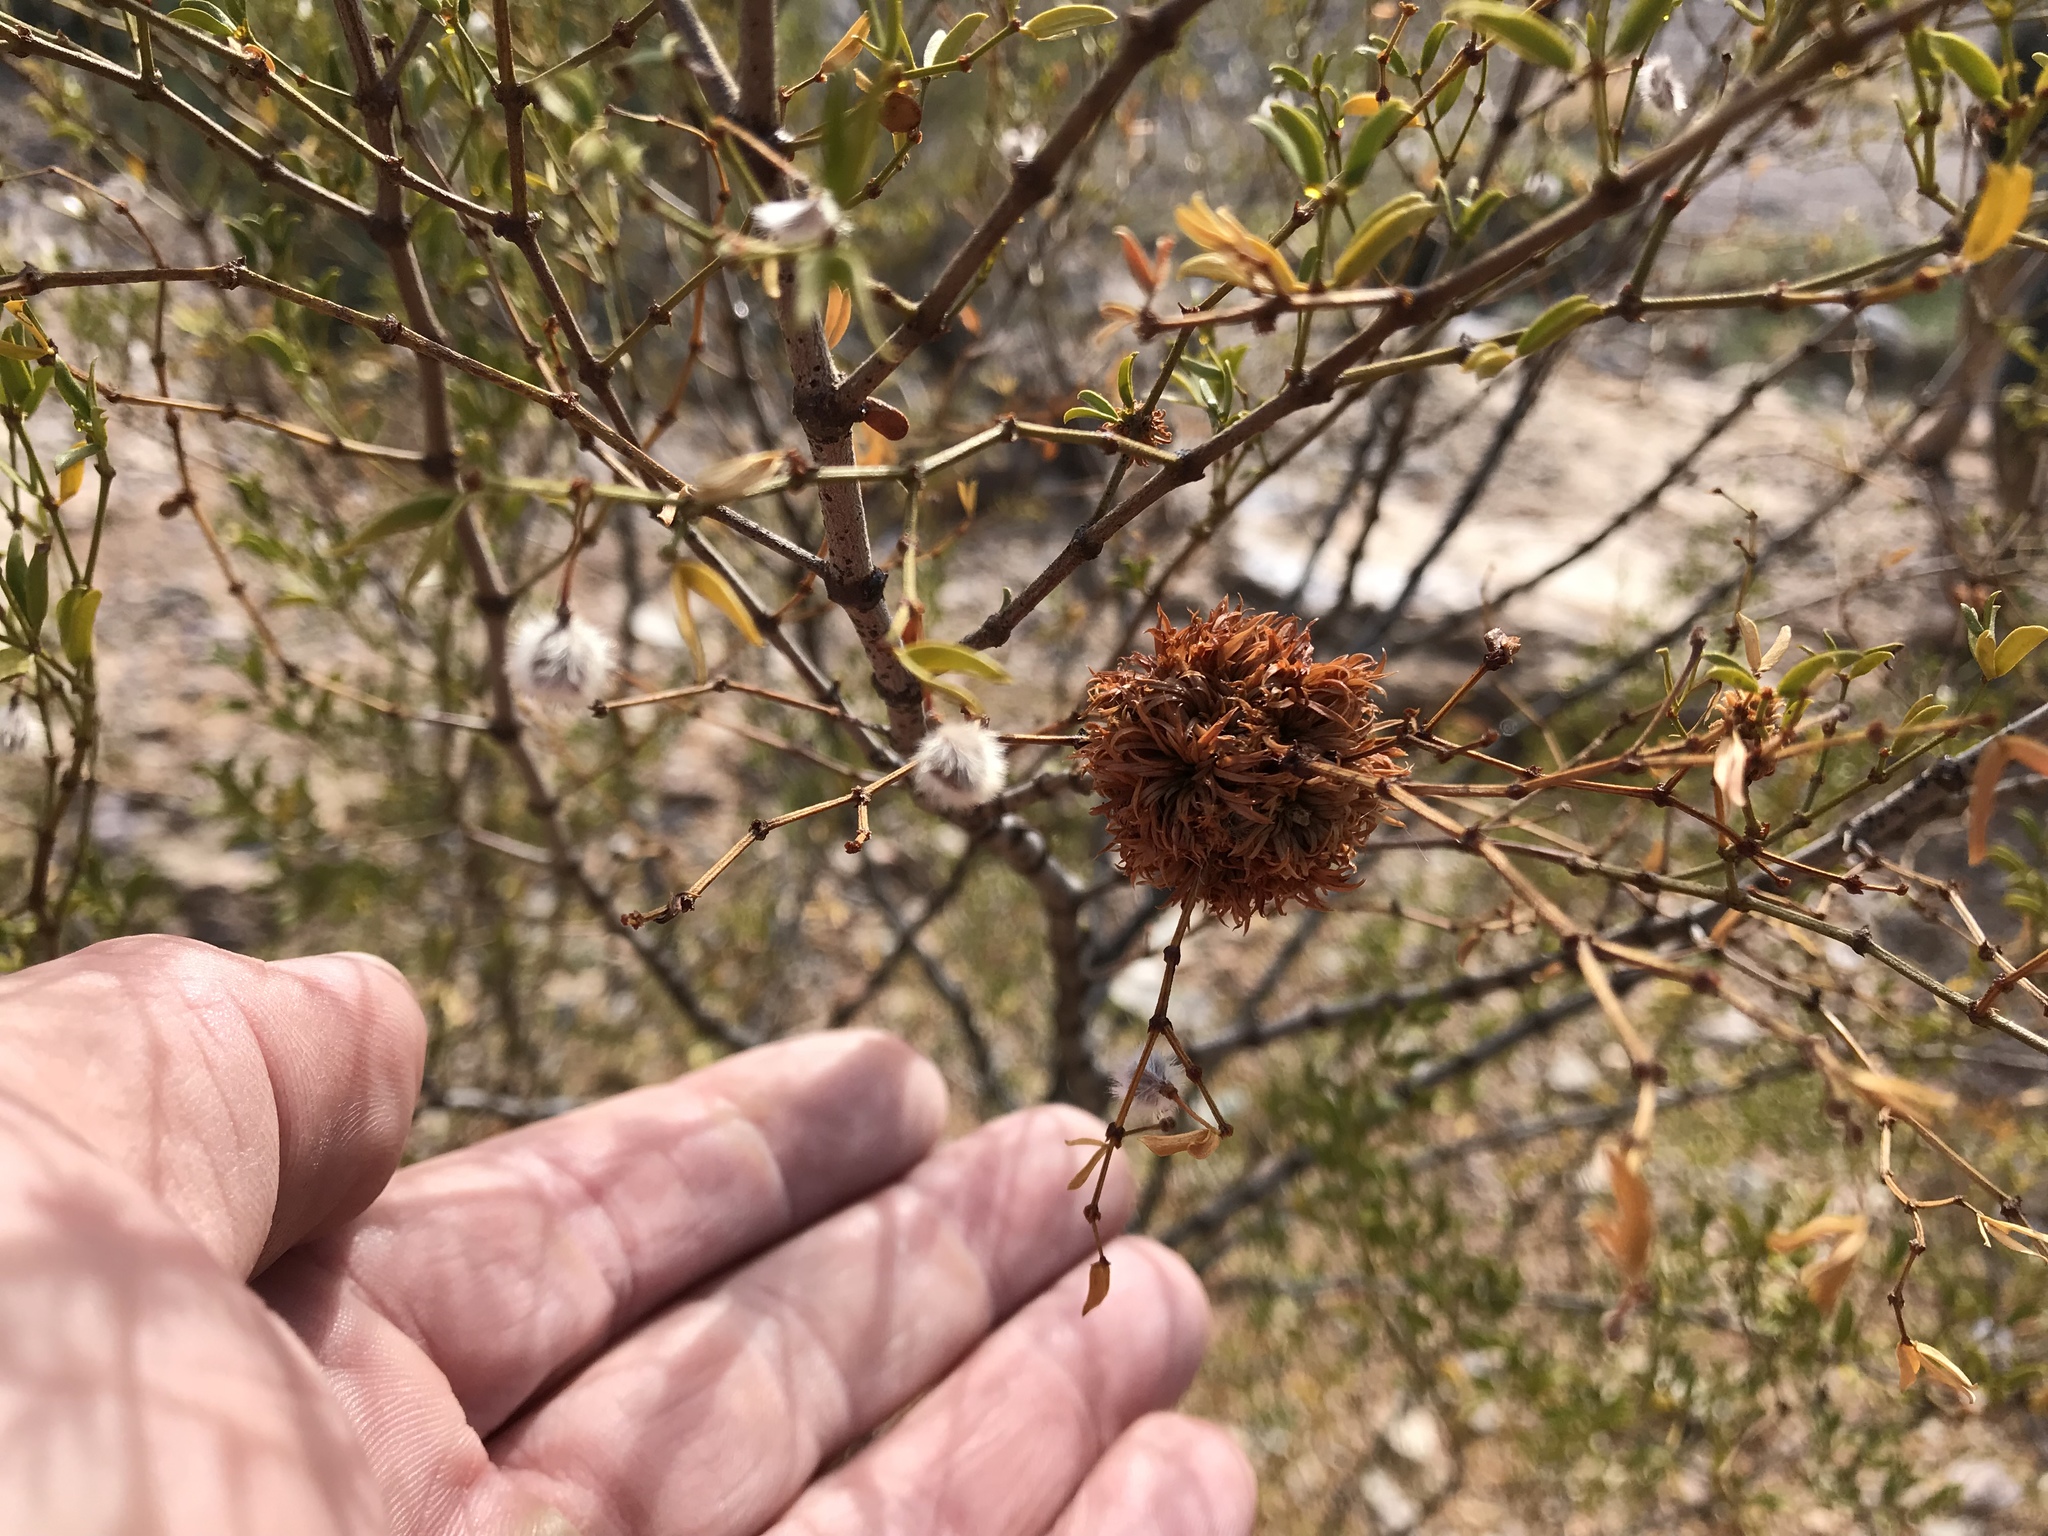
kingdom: Animalia
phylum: Arthropoda
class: Insecta
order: Diptera
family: Cecidomyiidae
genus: Asphondylia
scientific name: Asphondylia auripila
